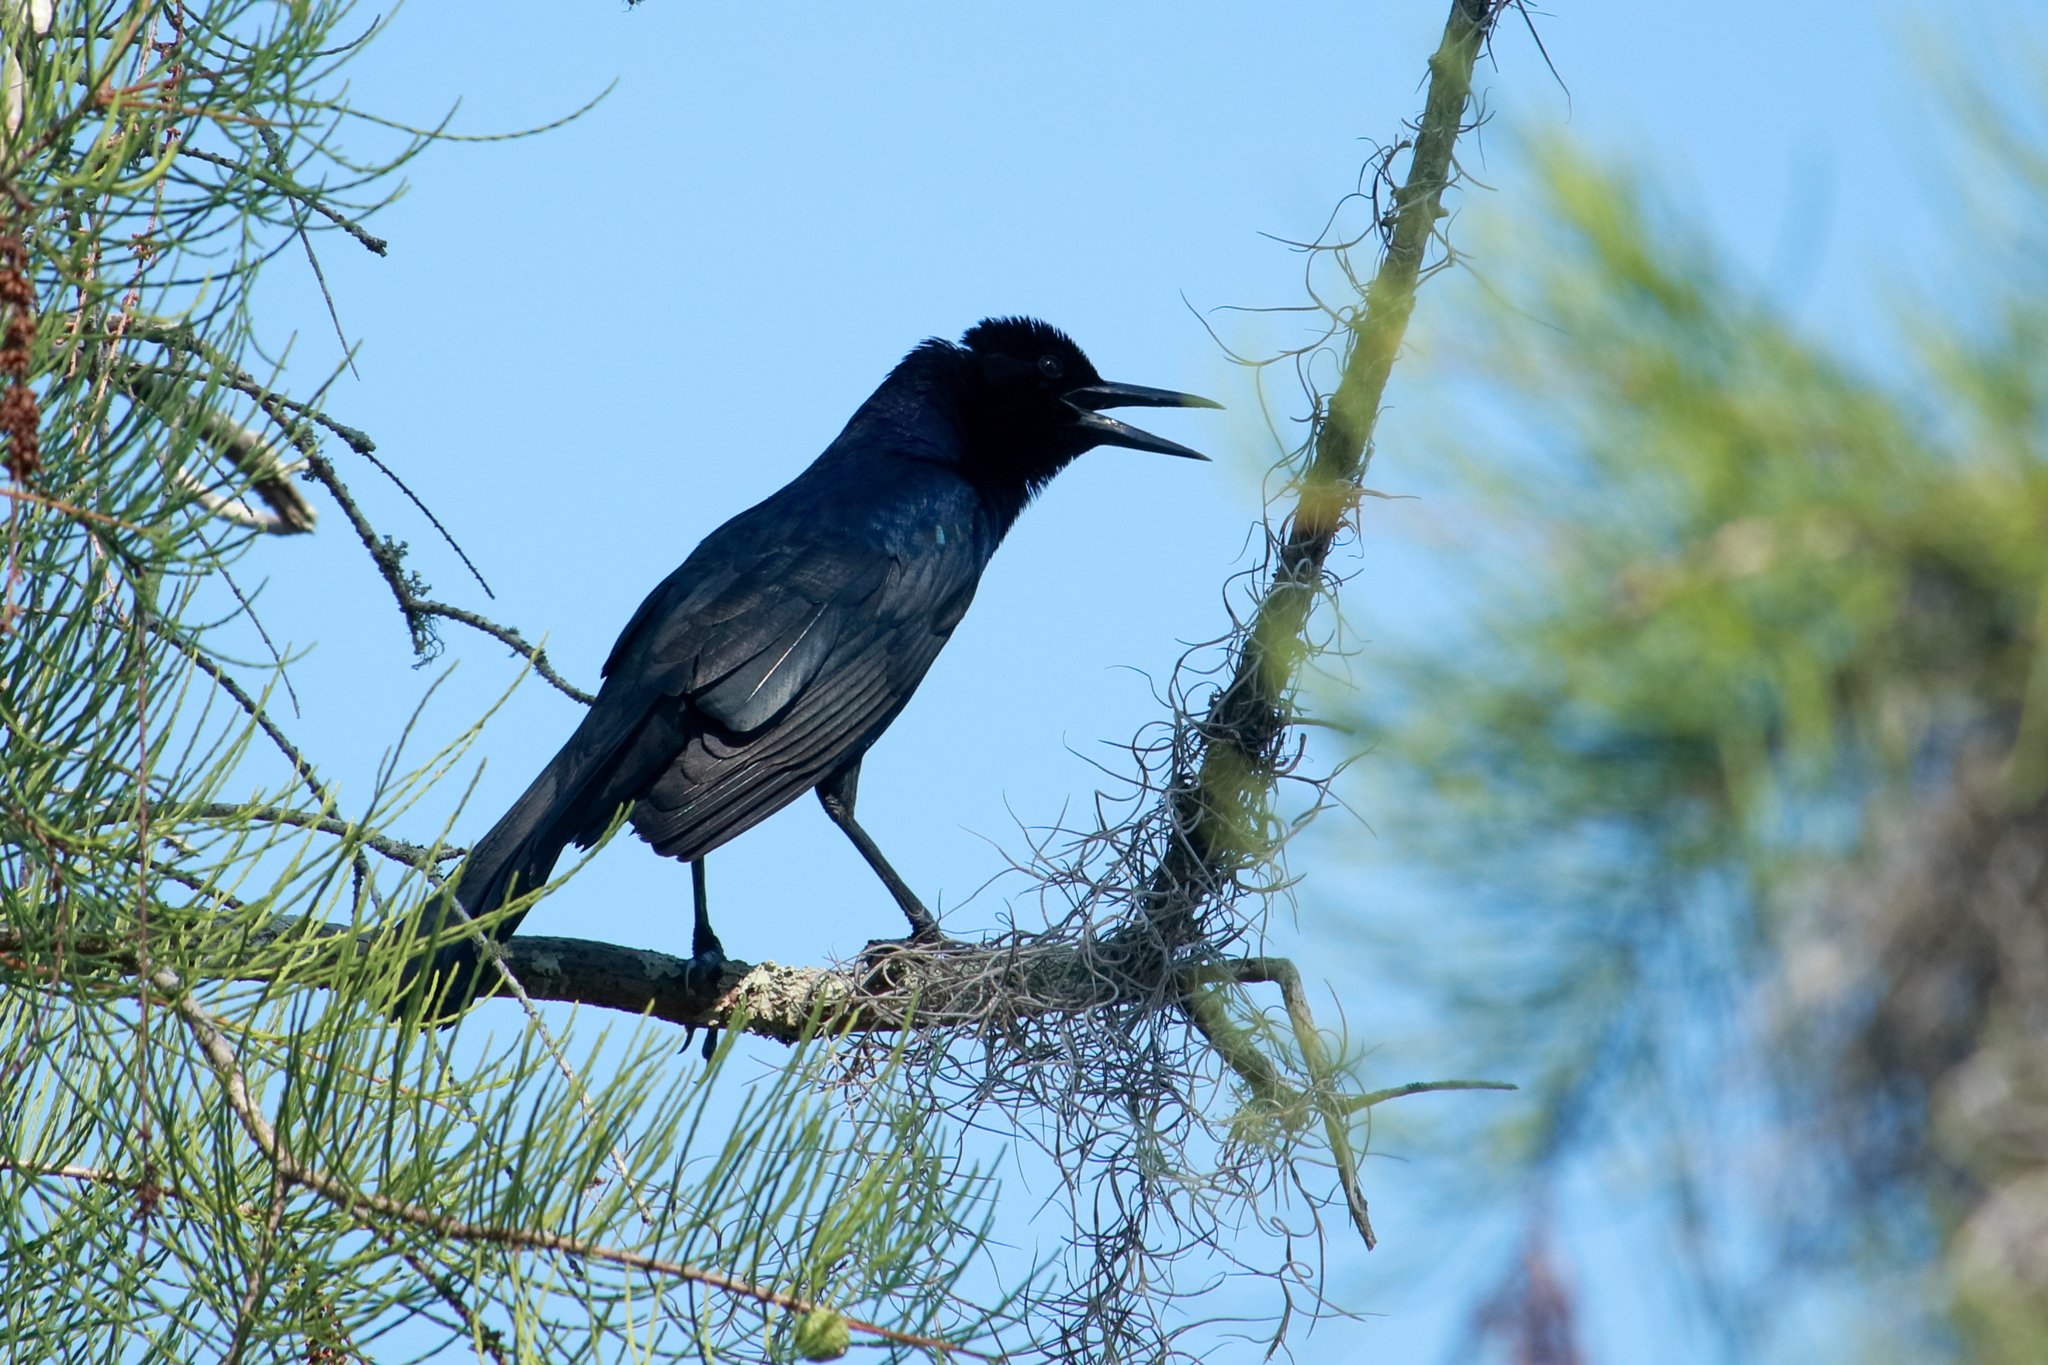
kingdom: Animalia
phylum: Chordata
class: Aves
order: Passeriformes
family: Icteridae
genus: Quiscalus
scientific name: Quiscalus major
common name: Boat-tailed grackle
